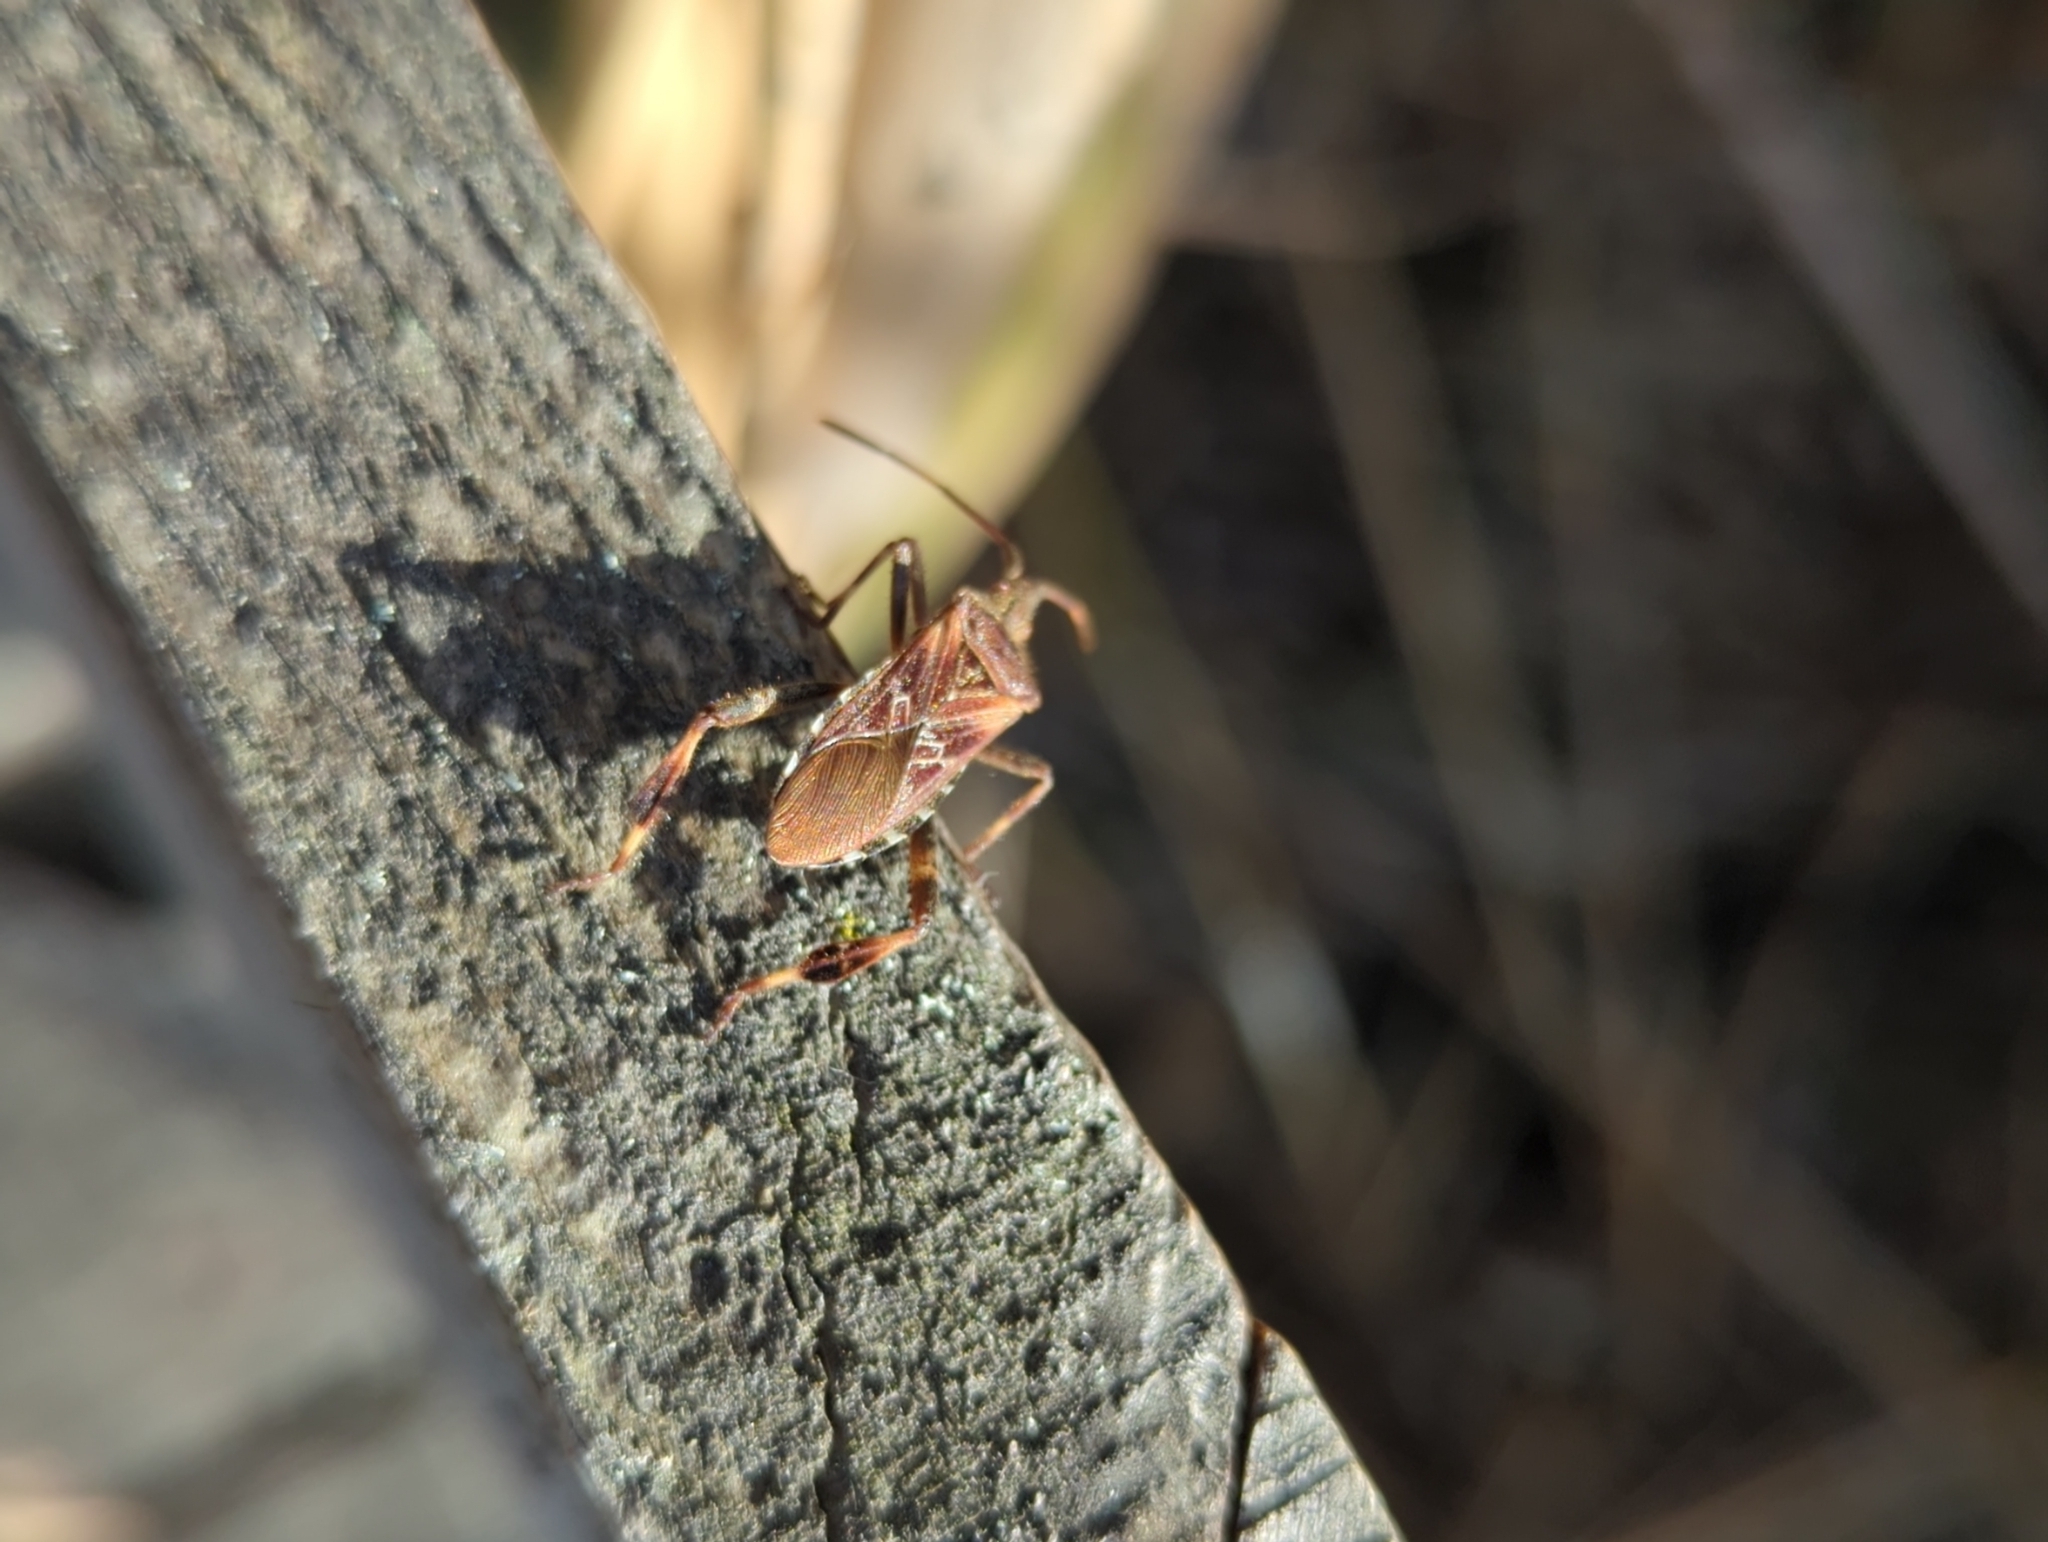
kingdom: Animalia
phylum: Arthropoda
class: Insecta
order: Hemiptera
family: Coreidae
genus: Leptoglossus
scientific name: Leptoglossus occidentalis
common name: Western conifer-seed bug
